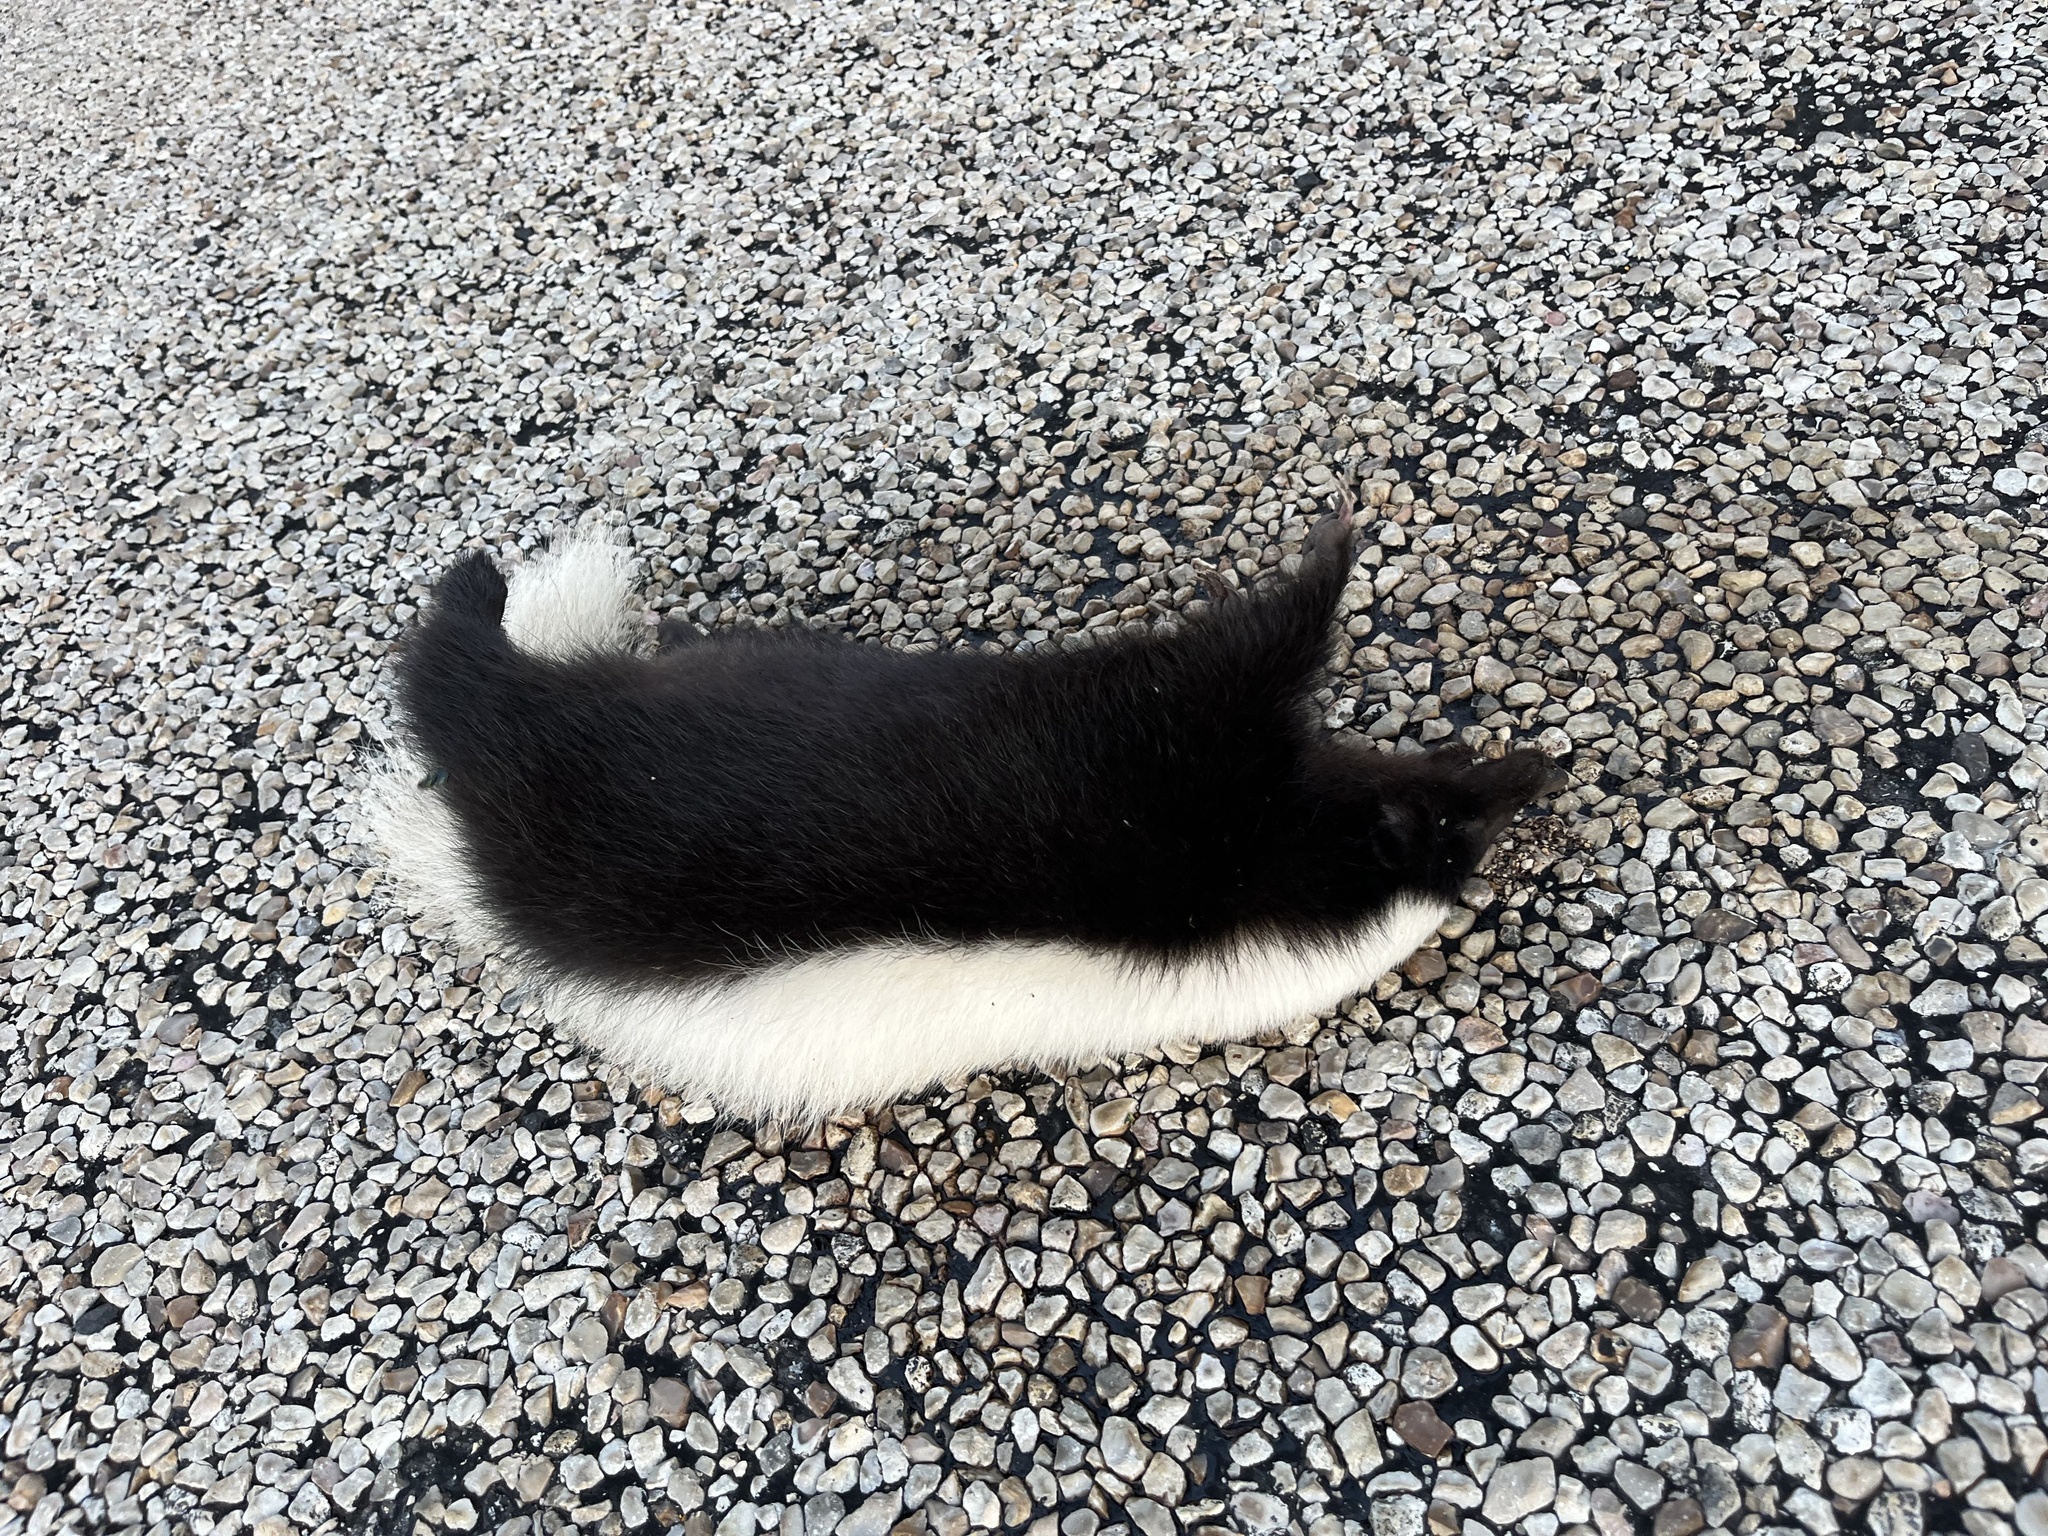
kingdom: Animalia
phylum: Chordata
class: Mammalia
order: Carnivora
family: Mephitidae
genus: Conepatus
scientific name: Conepatus leuconotus
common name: Eastern hog-nosed skunk
